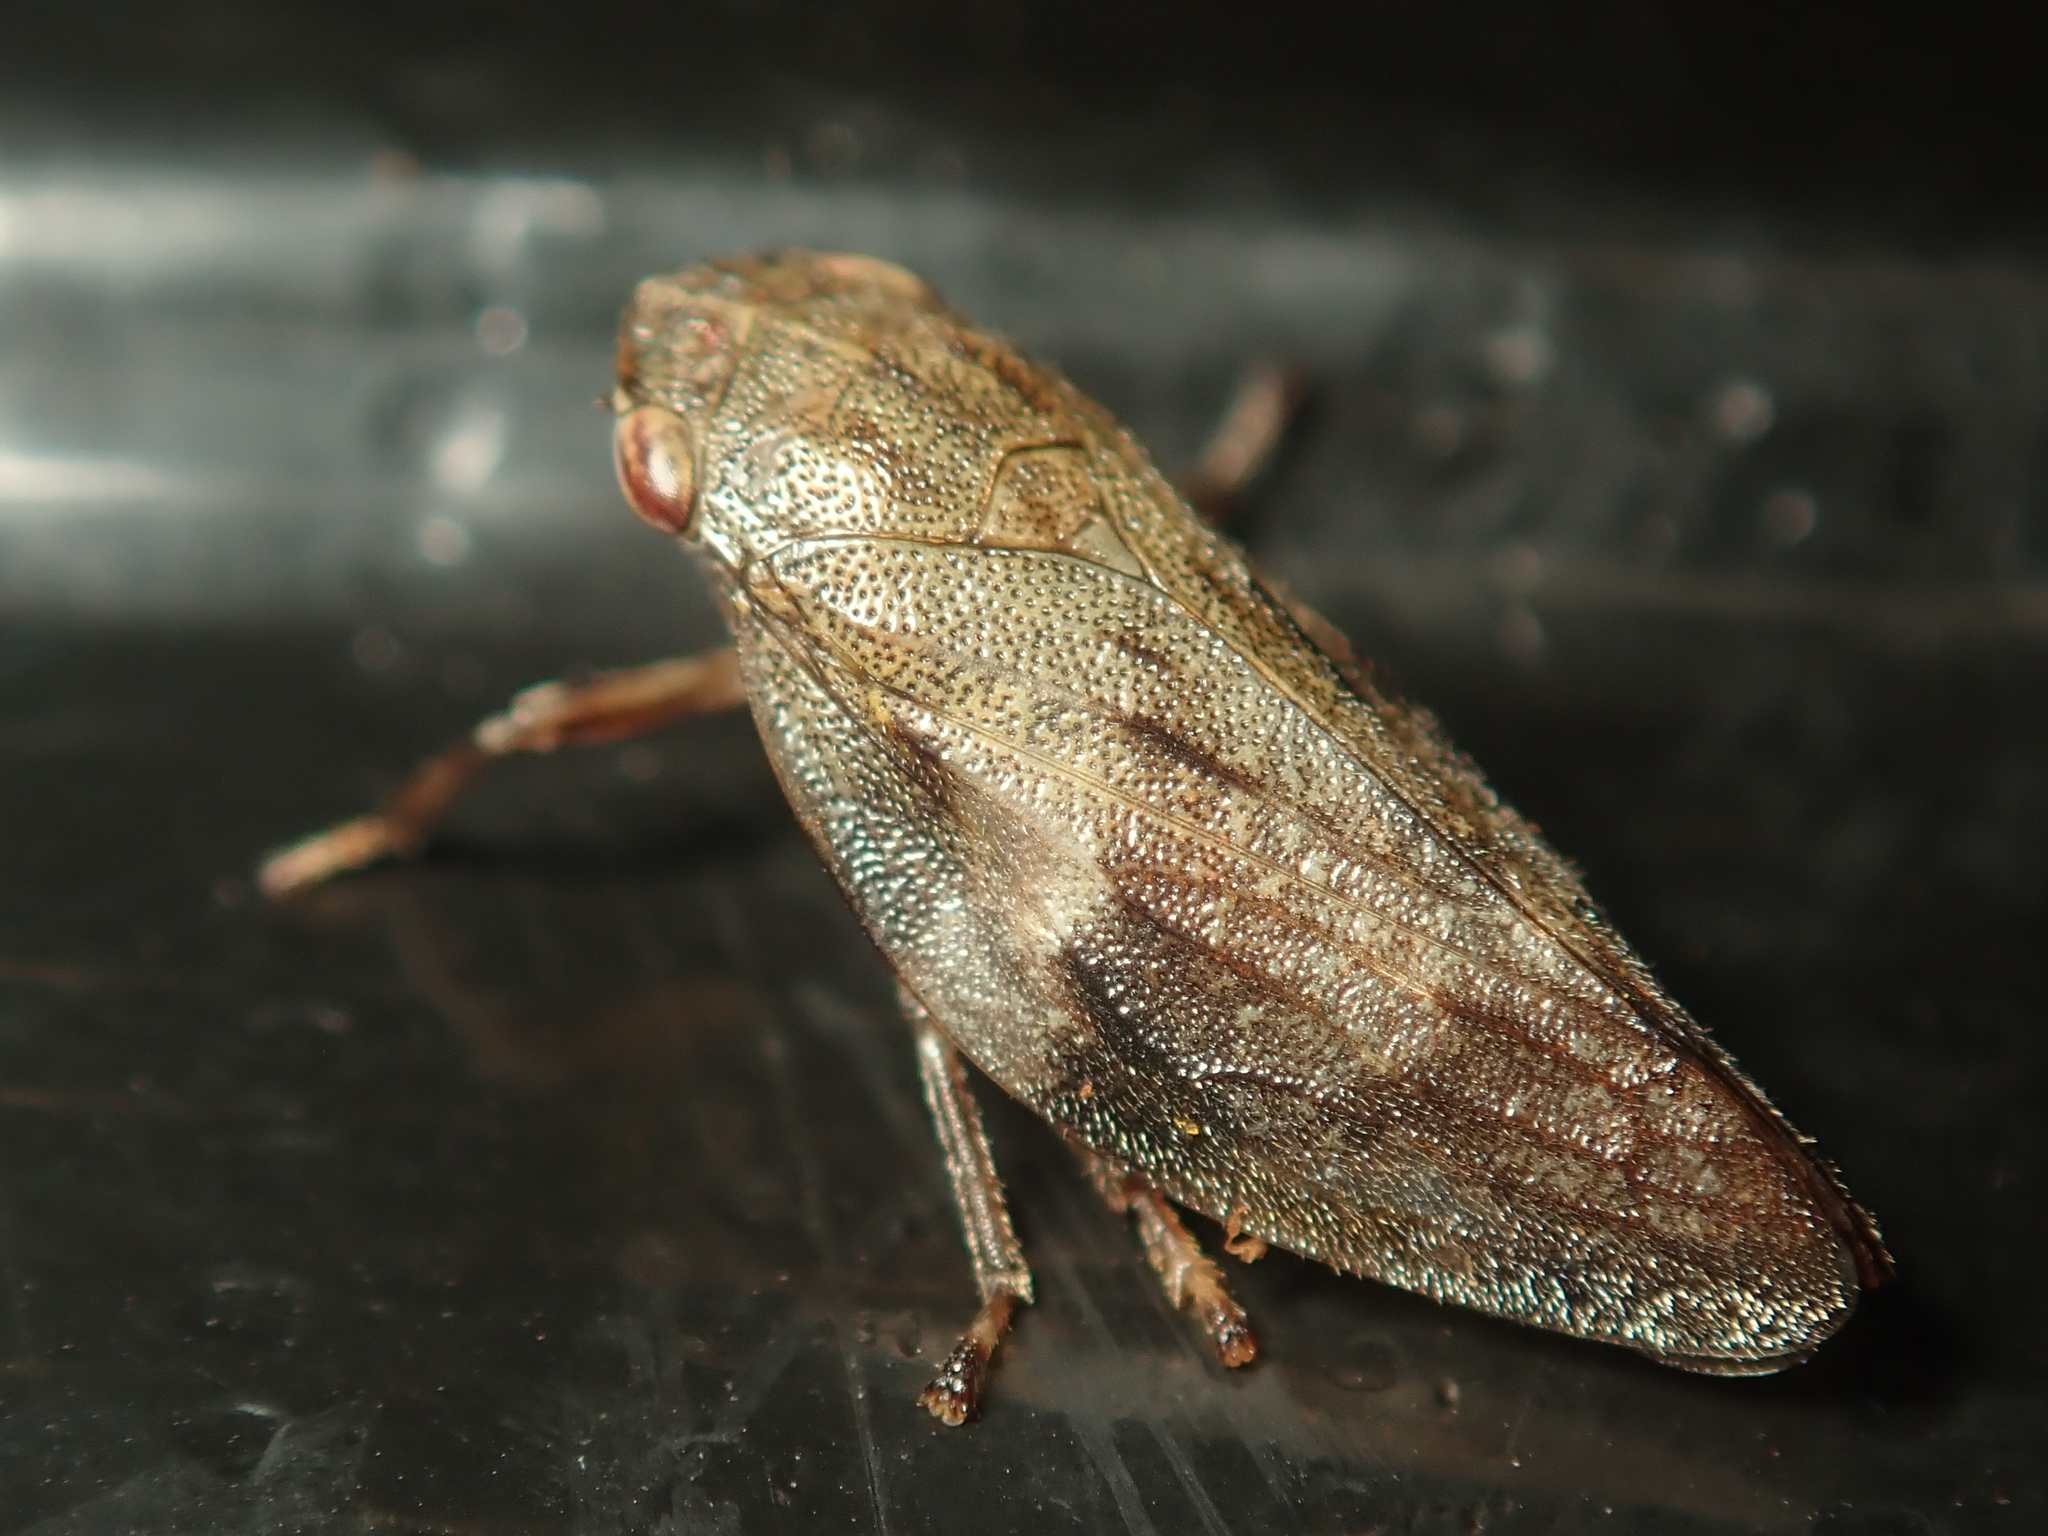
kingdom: Animalia
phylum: Arthropoda
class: Insecta
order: Hemiptera
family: Aphrophoridae
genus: Aphrophora
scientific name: Aphrophora alni
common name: European alder spittlebug
